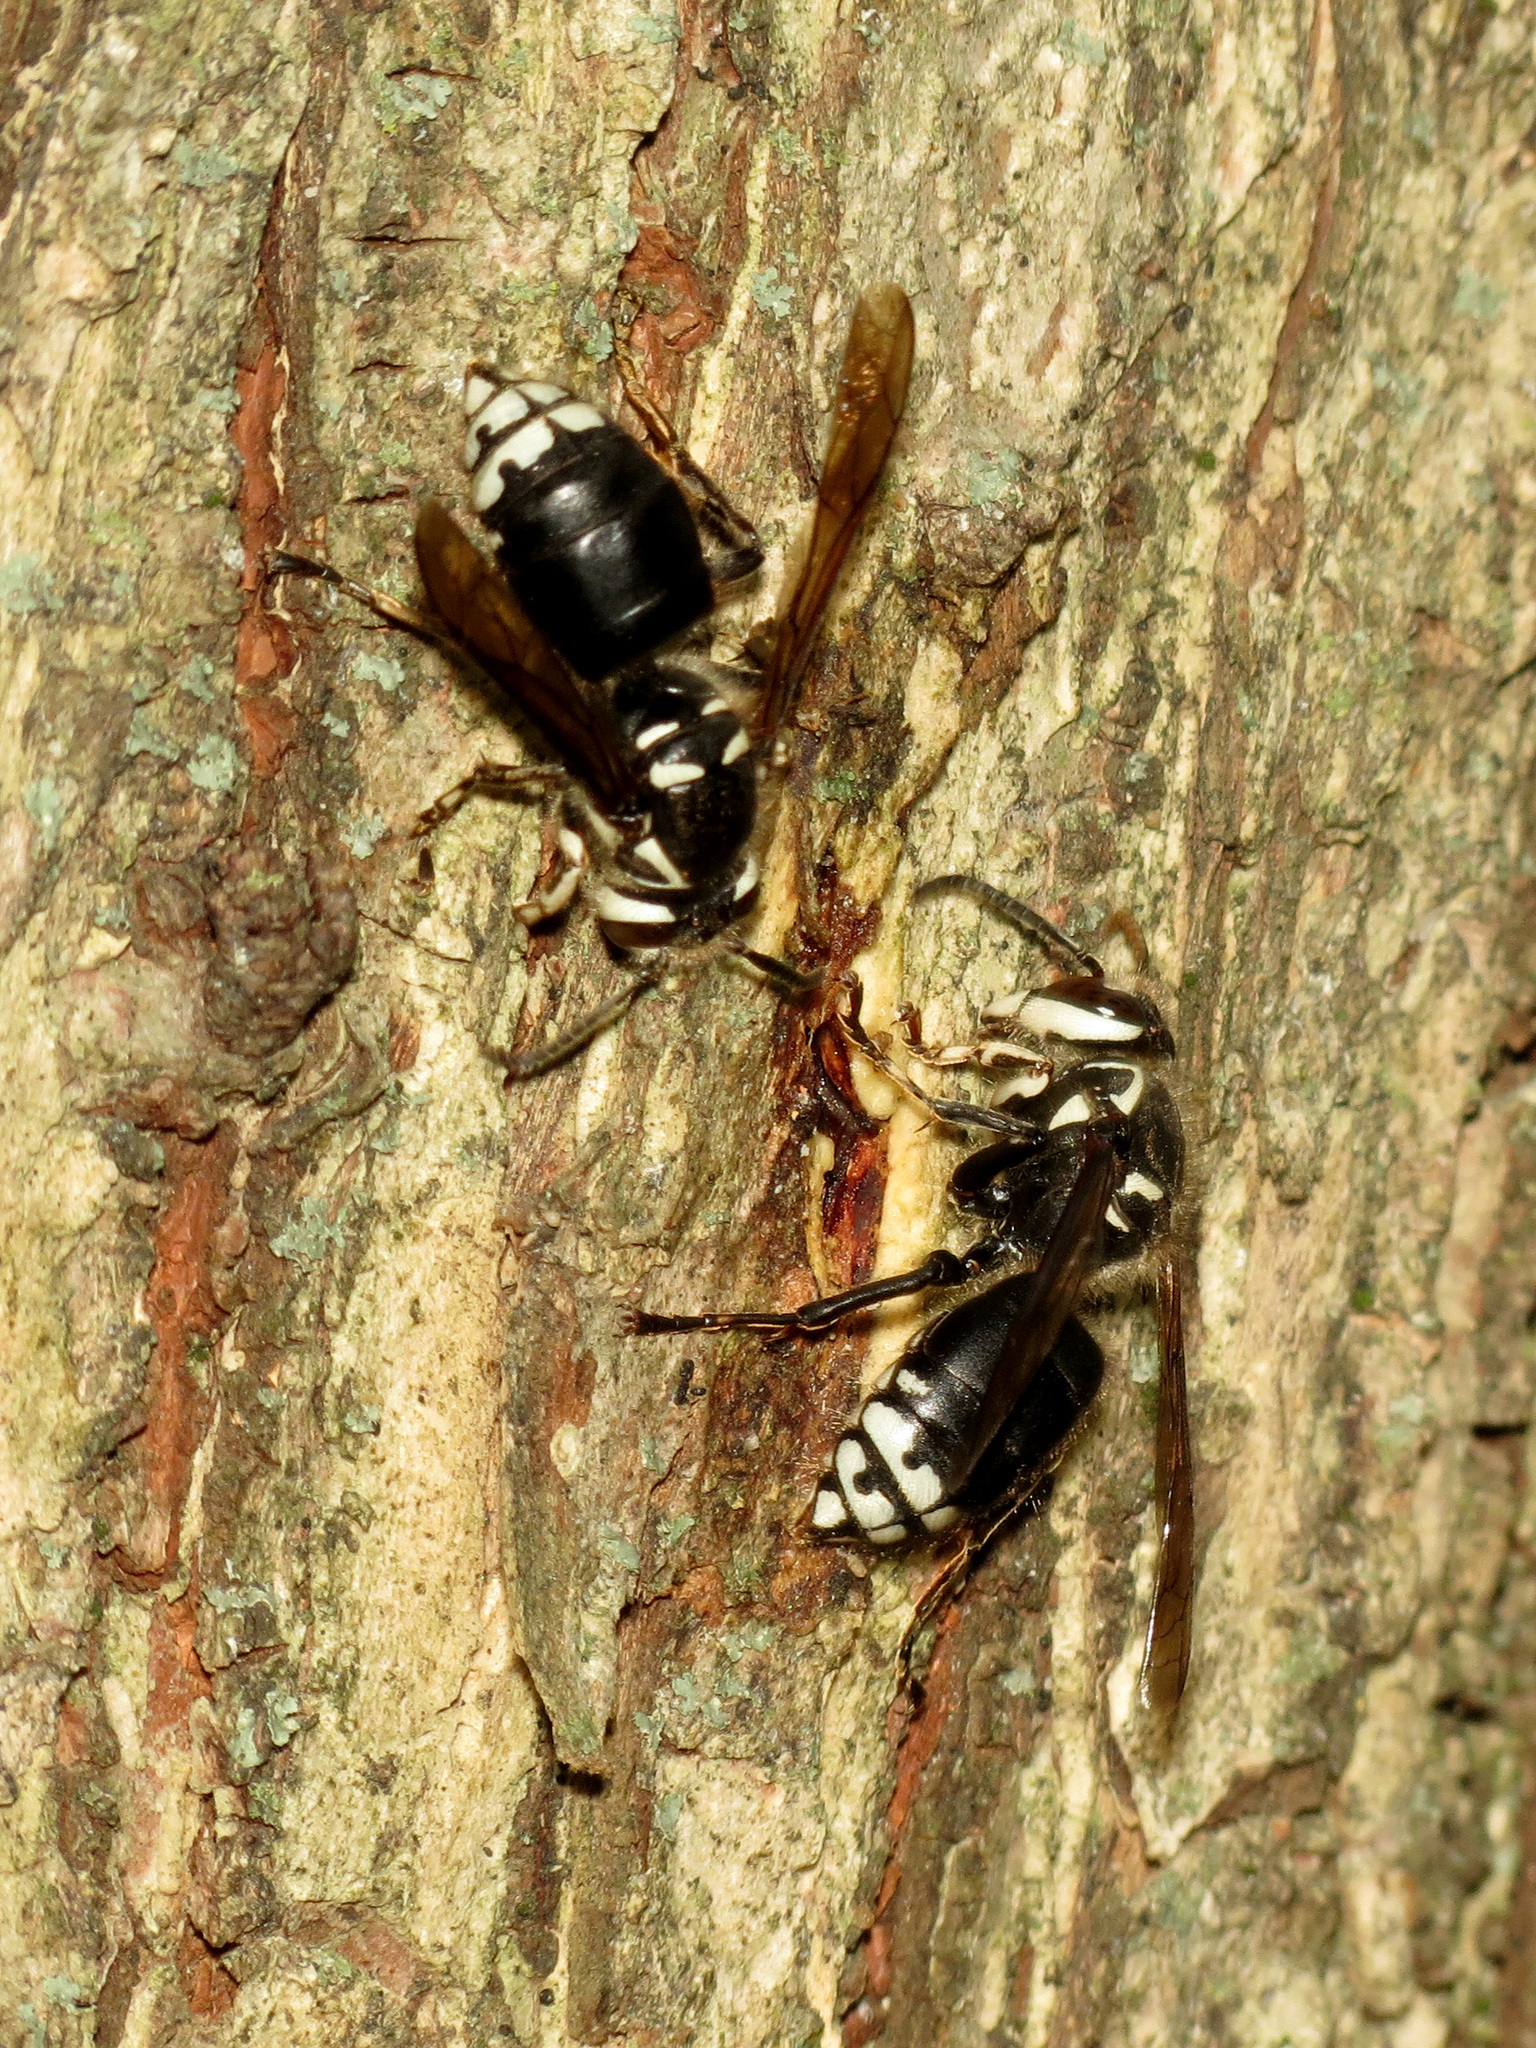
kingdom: Animalia
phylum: Arthropoda
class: Insecta
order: Hymenoptera
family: Vespidae
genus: Dolichovespula
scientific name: Dolichovespula maculata
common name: Bald-faced hornet
